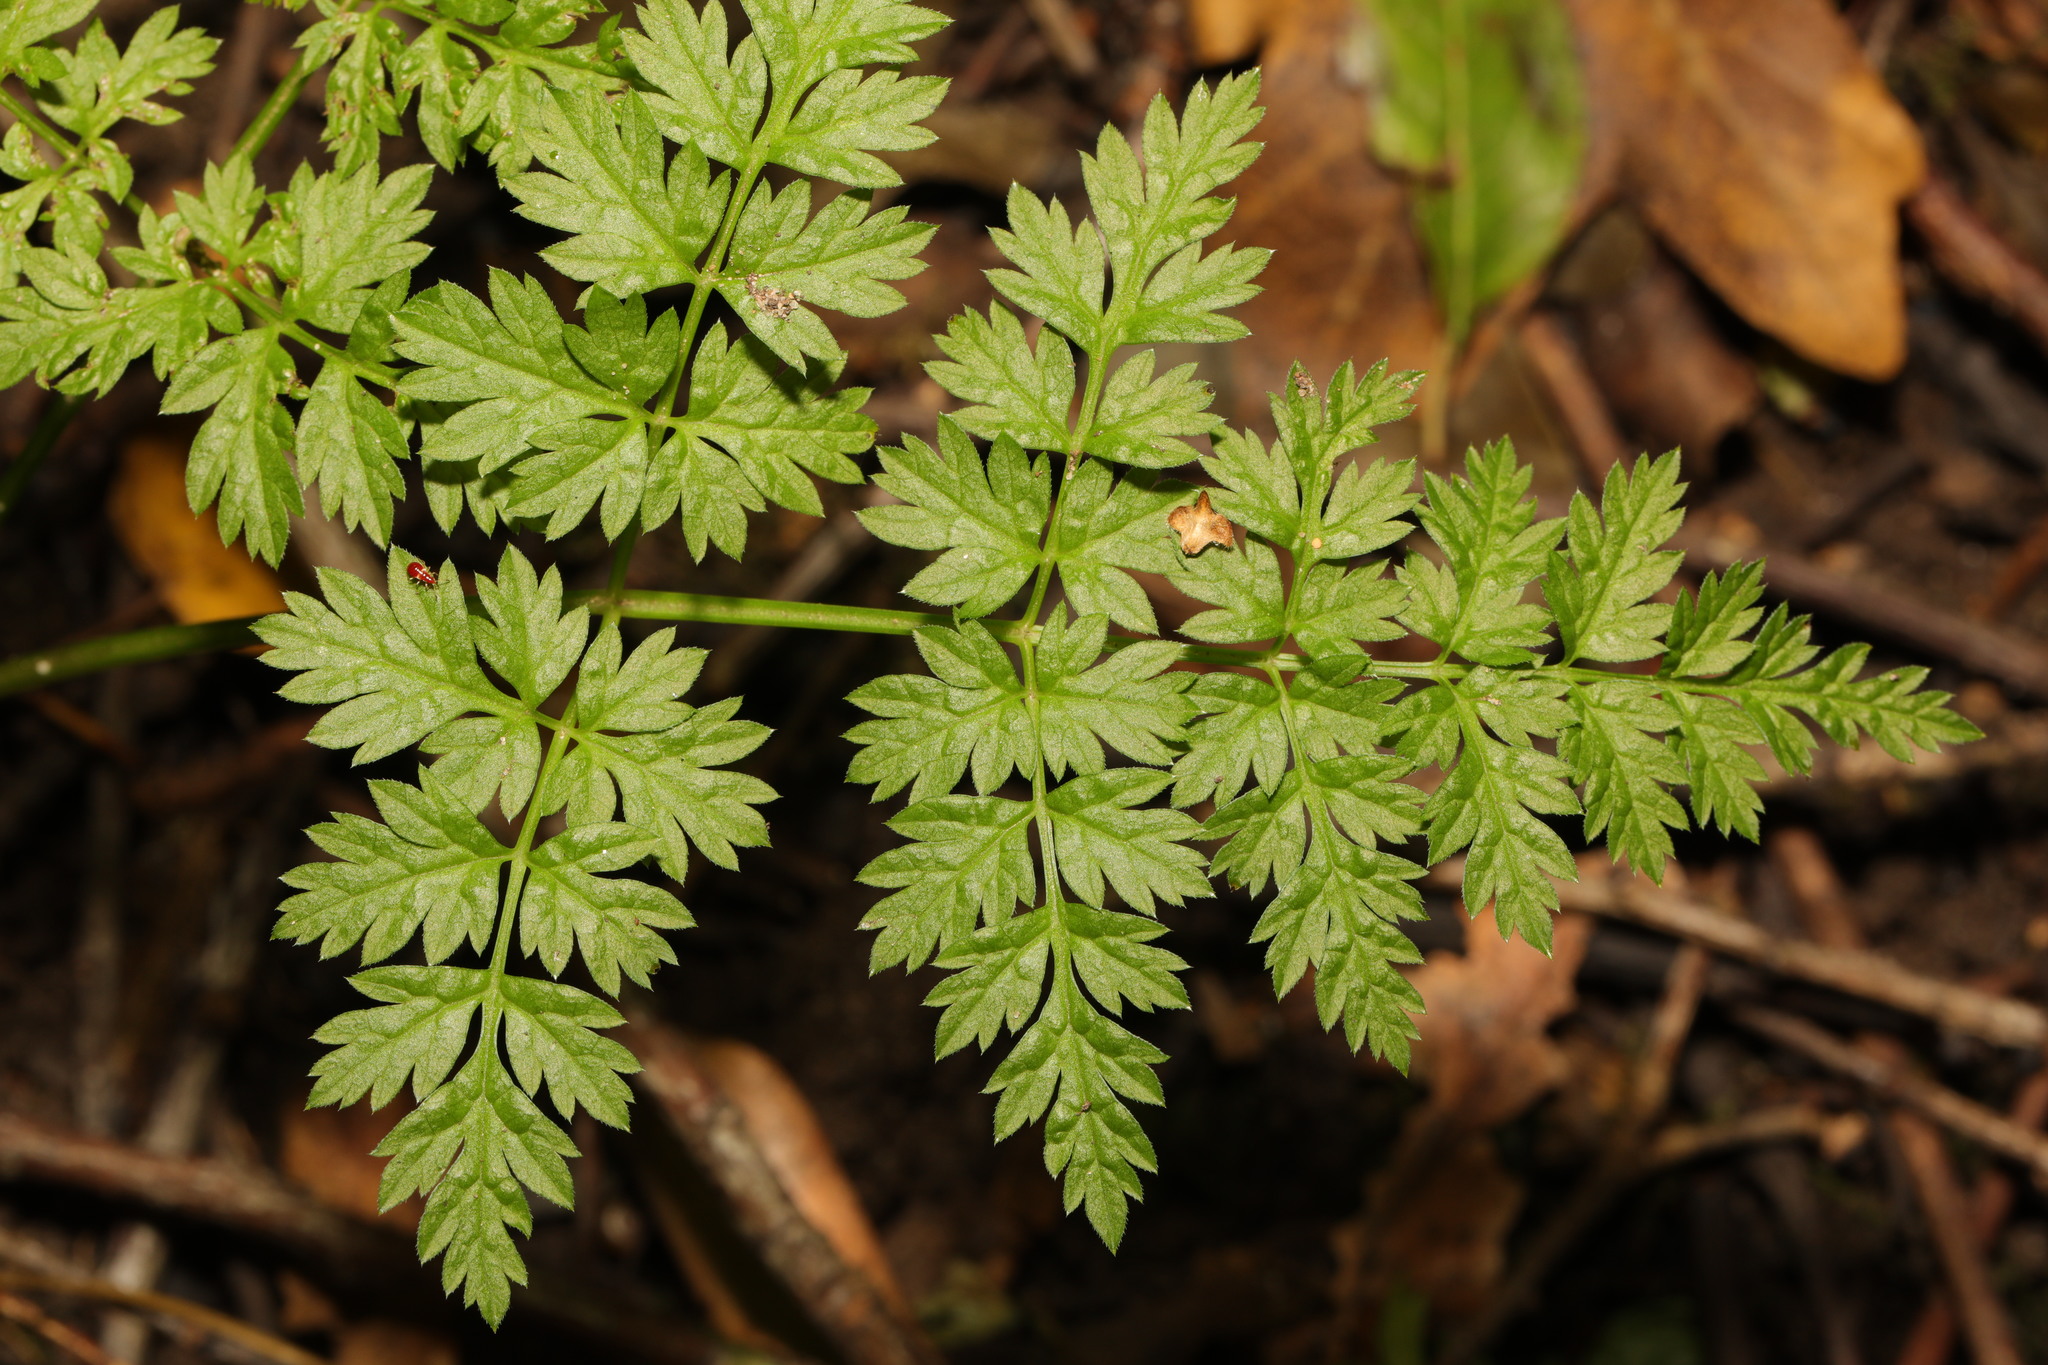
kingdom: Plantae
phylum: Tracheophyta
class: Magnoliopsida
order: Apiales
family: Apiaceae
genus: Anthriscus
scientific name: Anthriscus sylvestris
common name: Cow parsley
